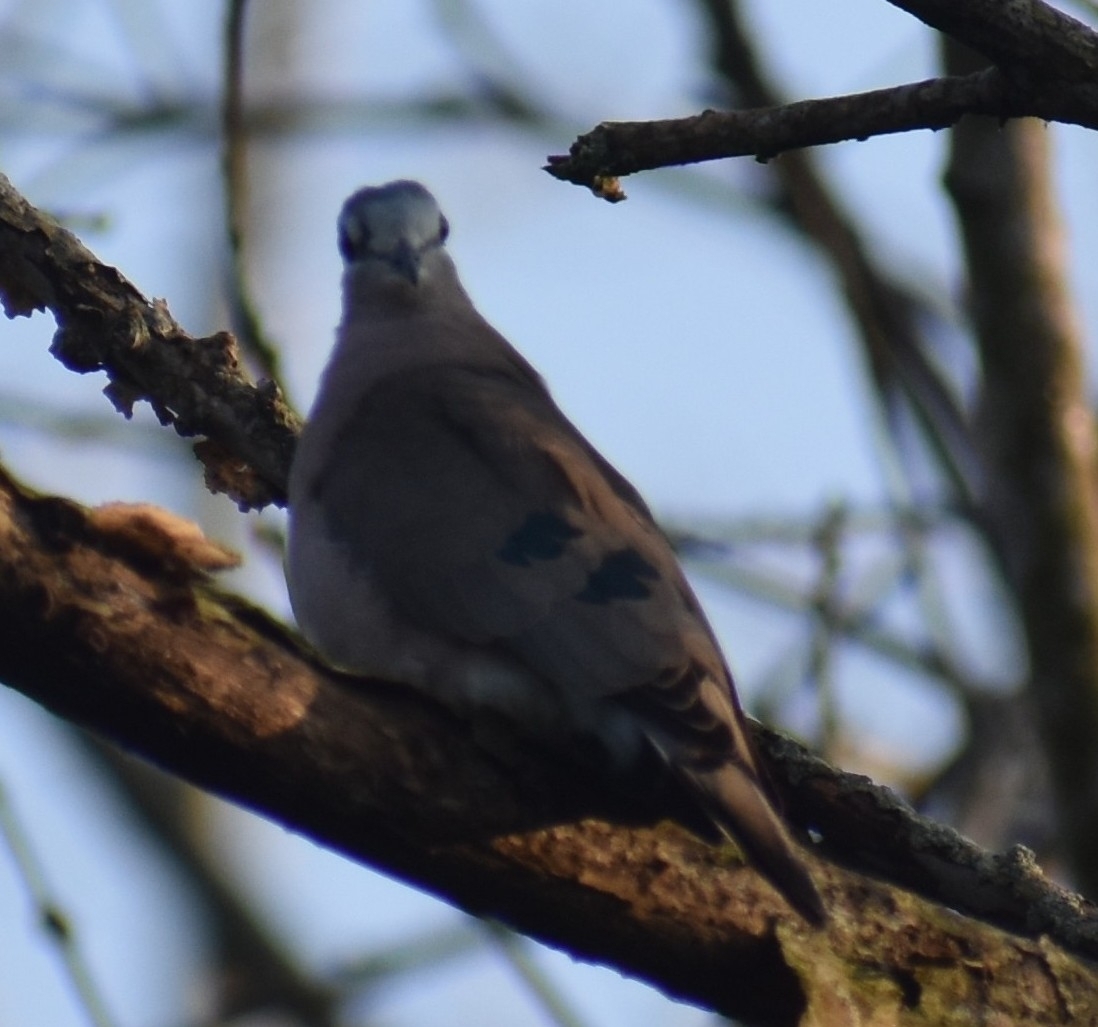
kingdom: Animalia
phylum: Chordata
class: Aves
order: Columbiformes
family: Columbidae
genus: Turtur
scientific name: Turtur chalcospilos
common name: Emerald-spotted wood dove
